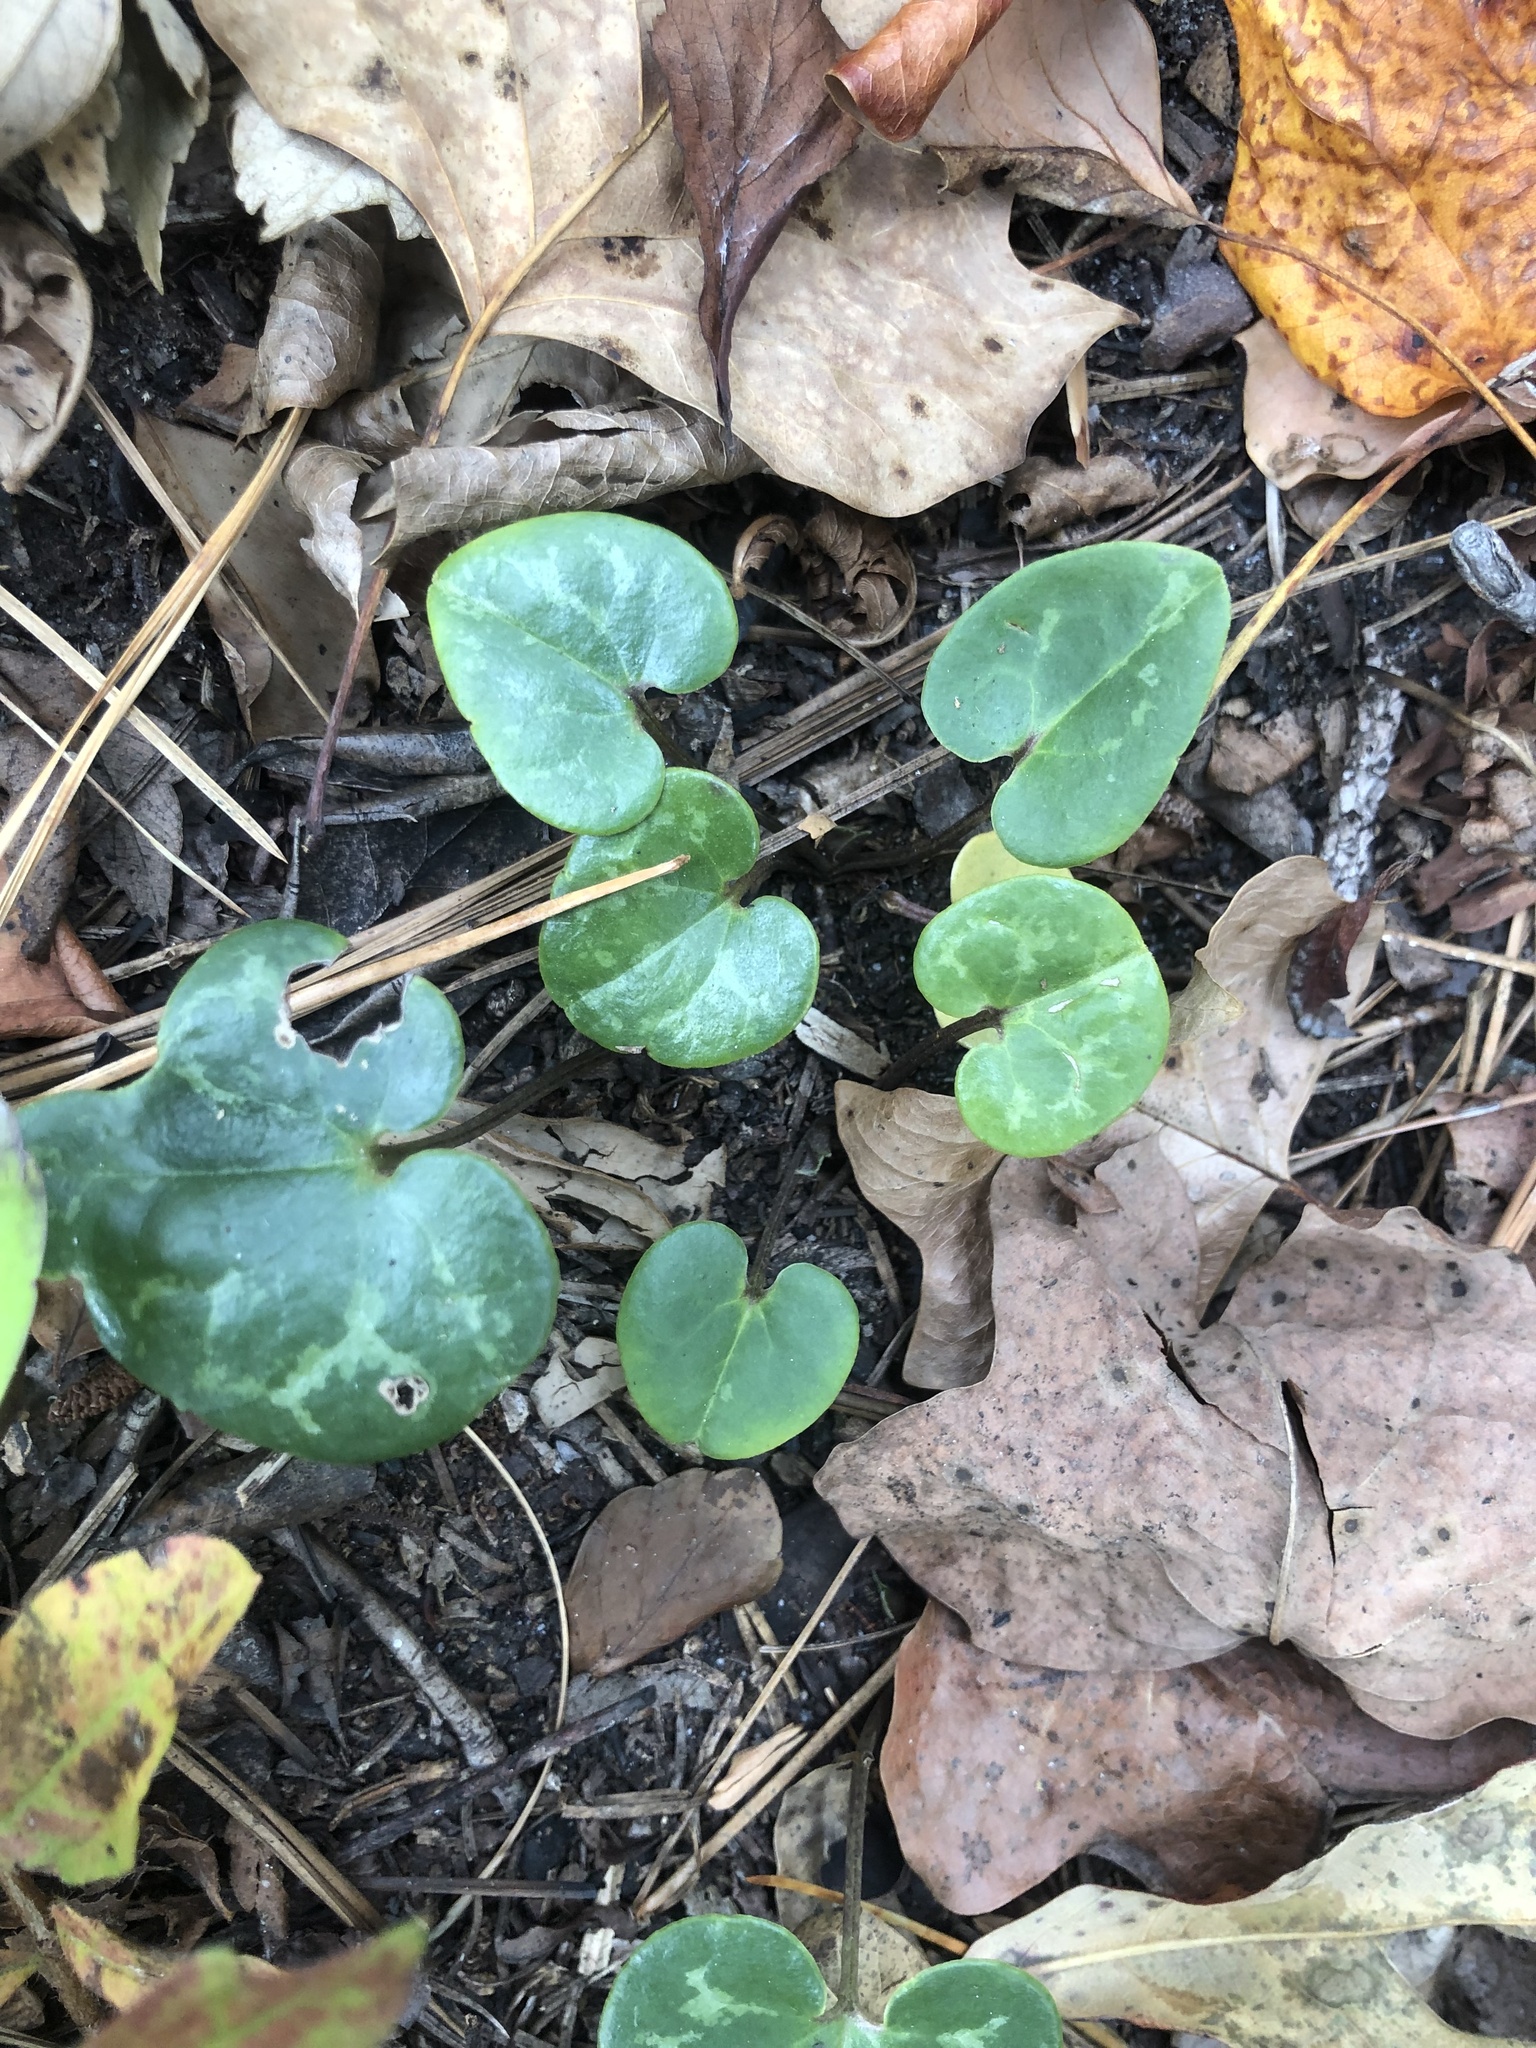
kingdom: Plantae
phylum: Tracheophyta
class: Magnoliopsida
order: Piperales
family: Aristolochiaceae
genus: Hexastylis
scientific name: Hexastylis sorriei
